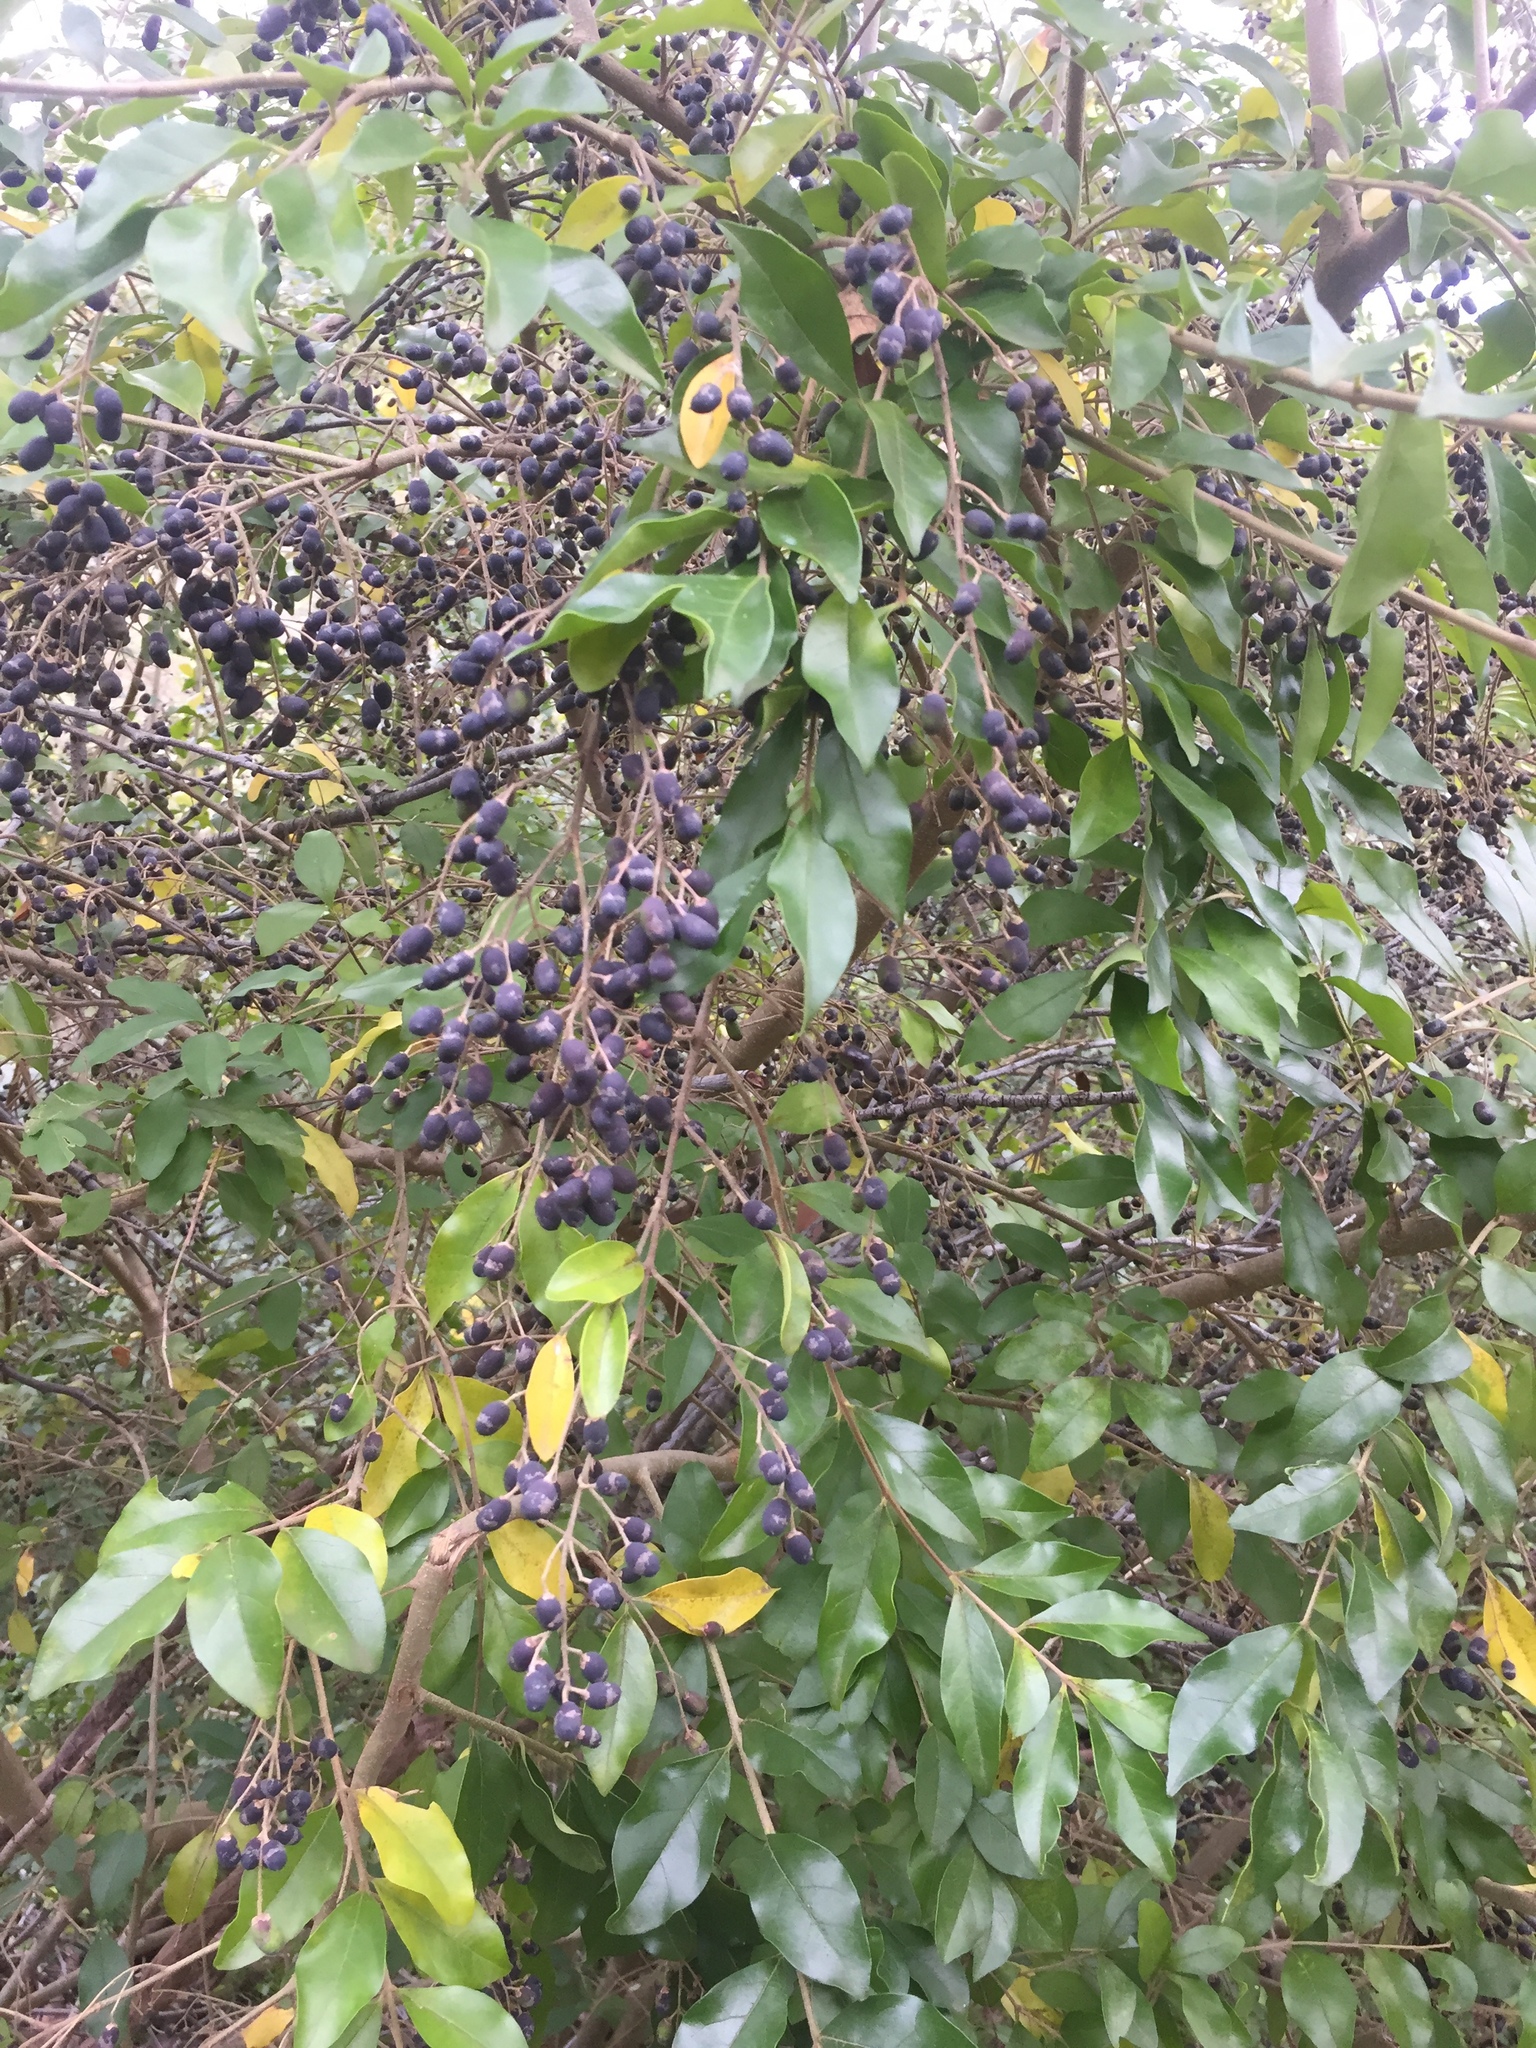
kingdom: Plantae
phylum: Tracheophyta
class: Magnoliopsida
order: Lamiales
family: Oleaceae
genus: Ligustrum
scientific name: Ligustrum sinense
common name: Chinese privet
